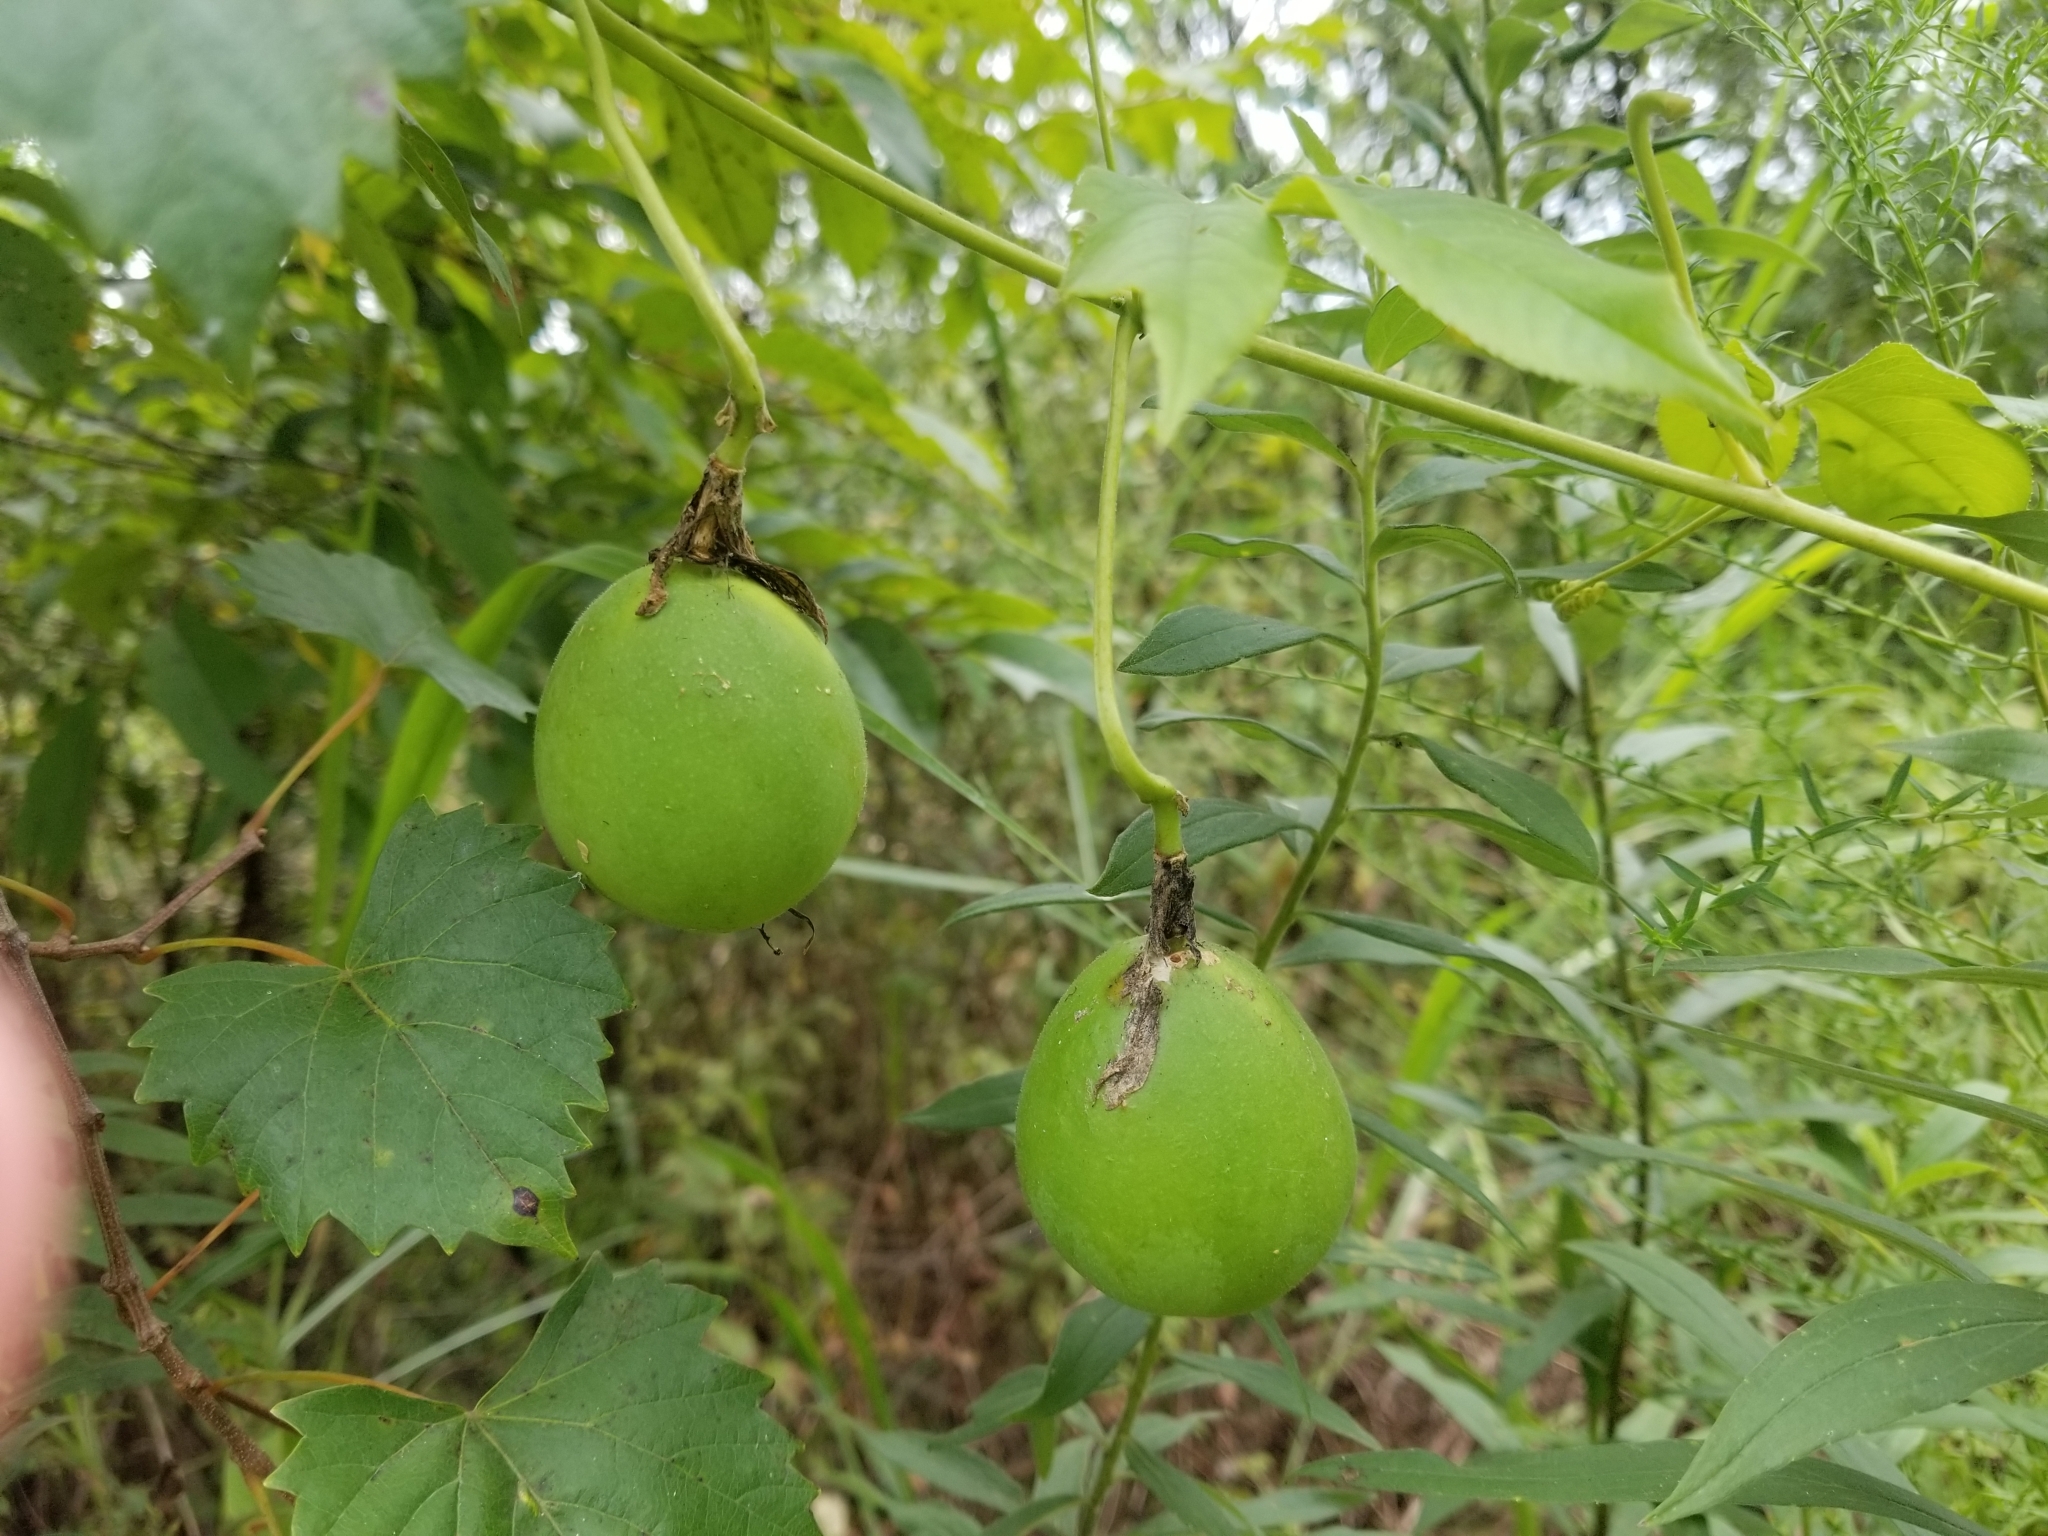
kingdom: Plantae
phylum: Tracheophyta
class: Magnoliopsida
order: Malpighiales
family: Passifloraceae
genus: Passiflora
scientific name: Passiflora incarnata
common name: Apricot-vine
